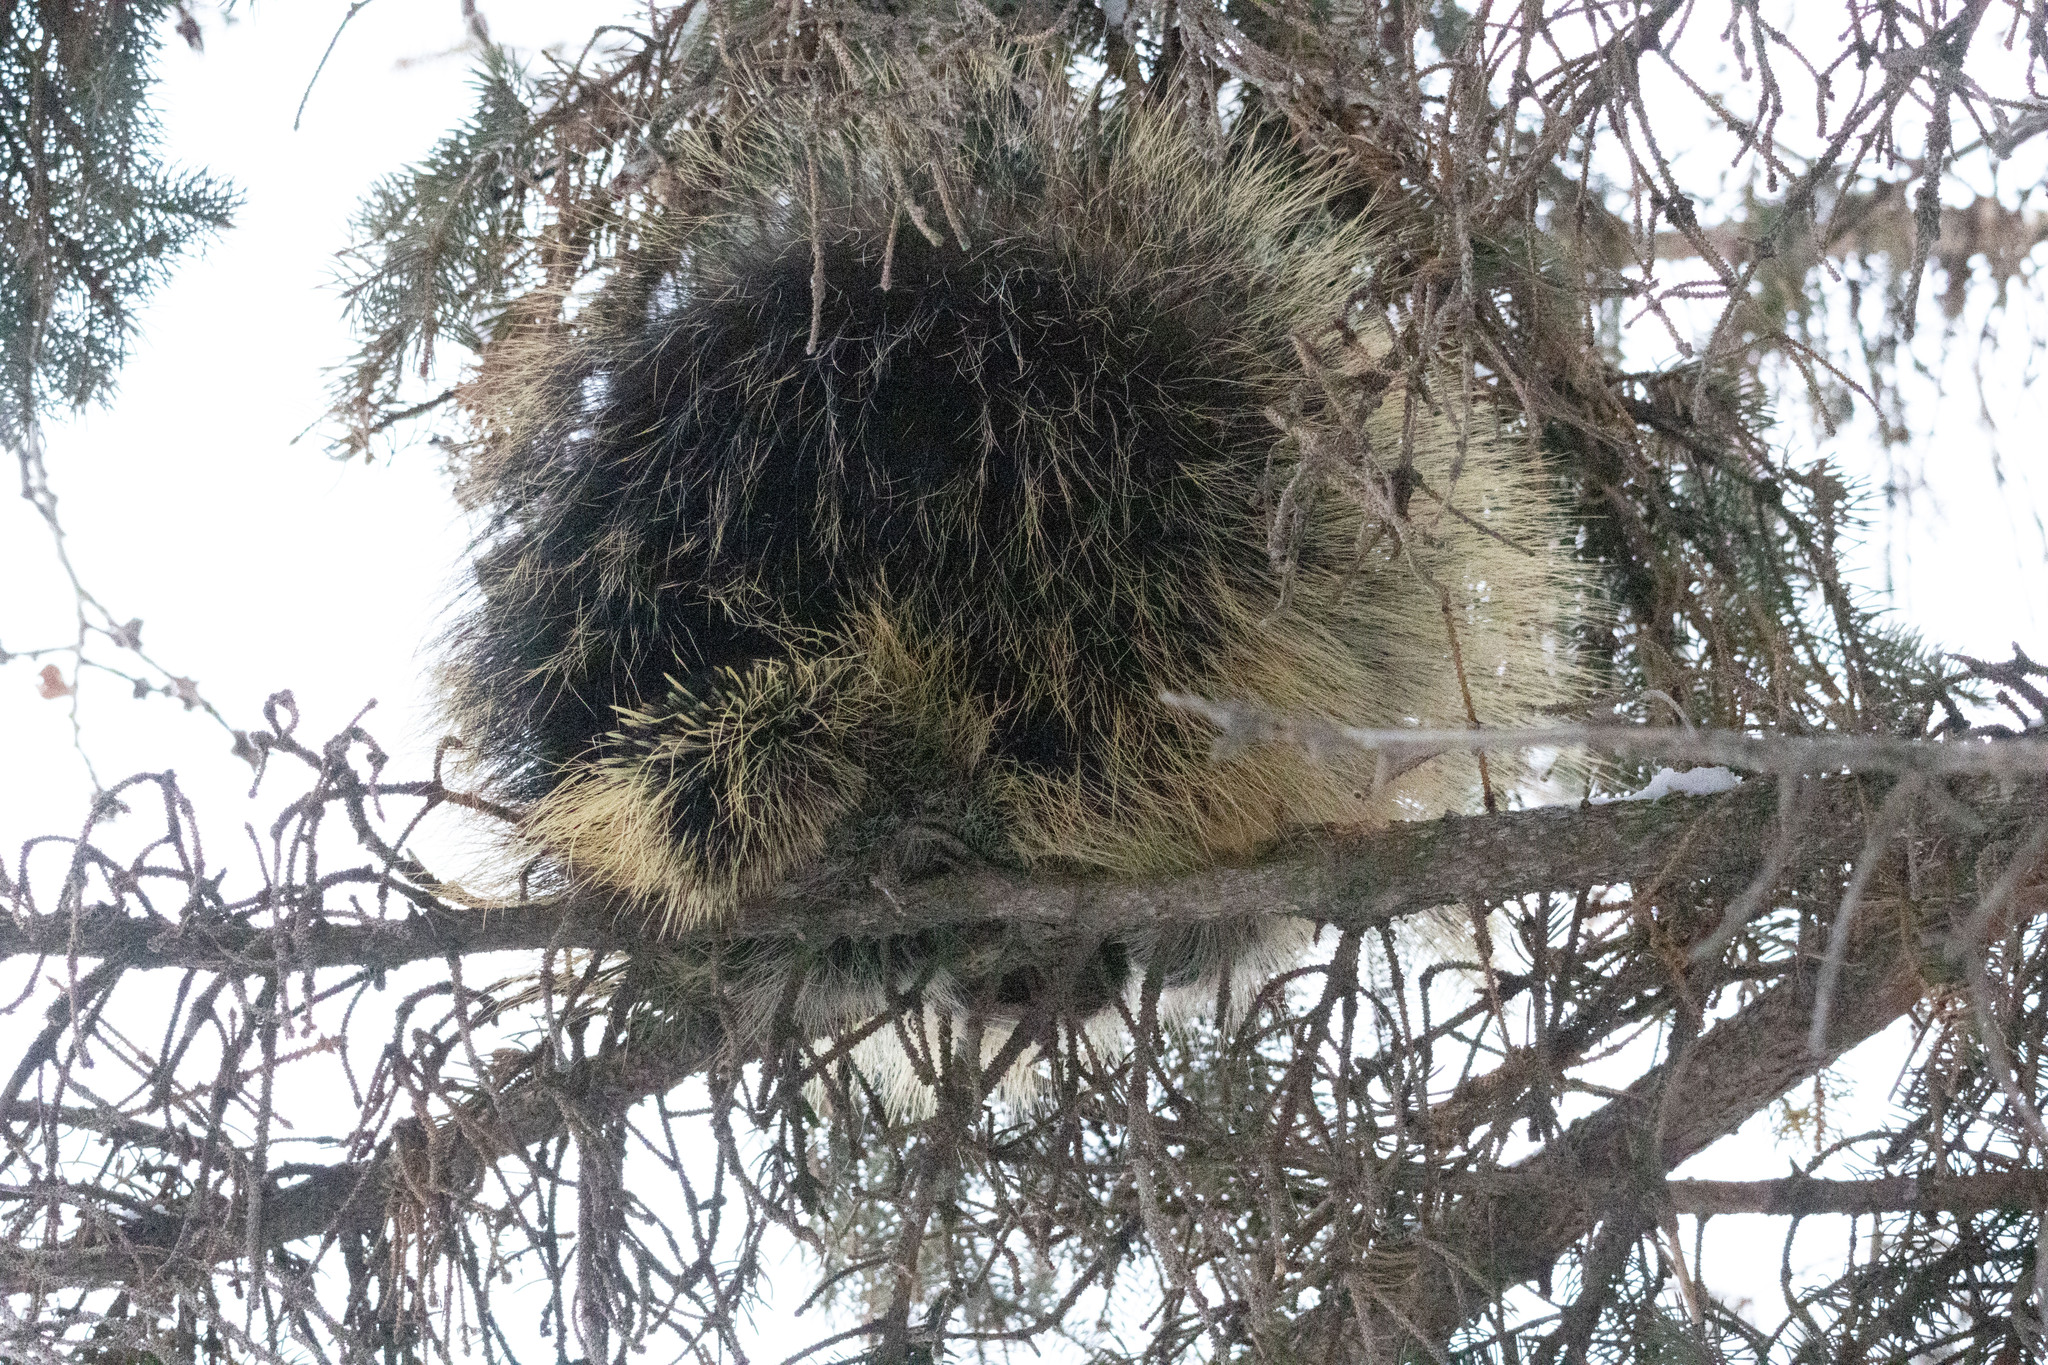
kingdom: Animalia
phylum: Chordata
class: Mammalia
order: Rodentia
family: Erethizontidae
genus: Erethizon
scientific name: Erethizon dorsatus
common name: North american porcupine
